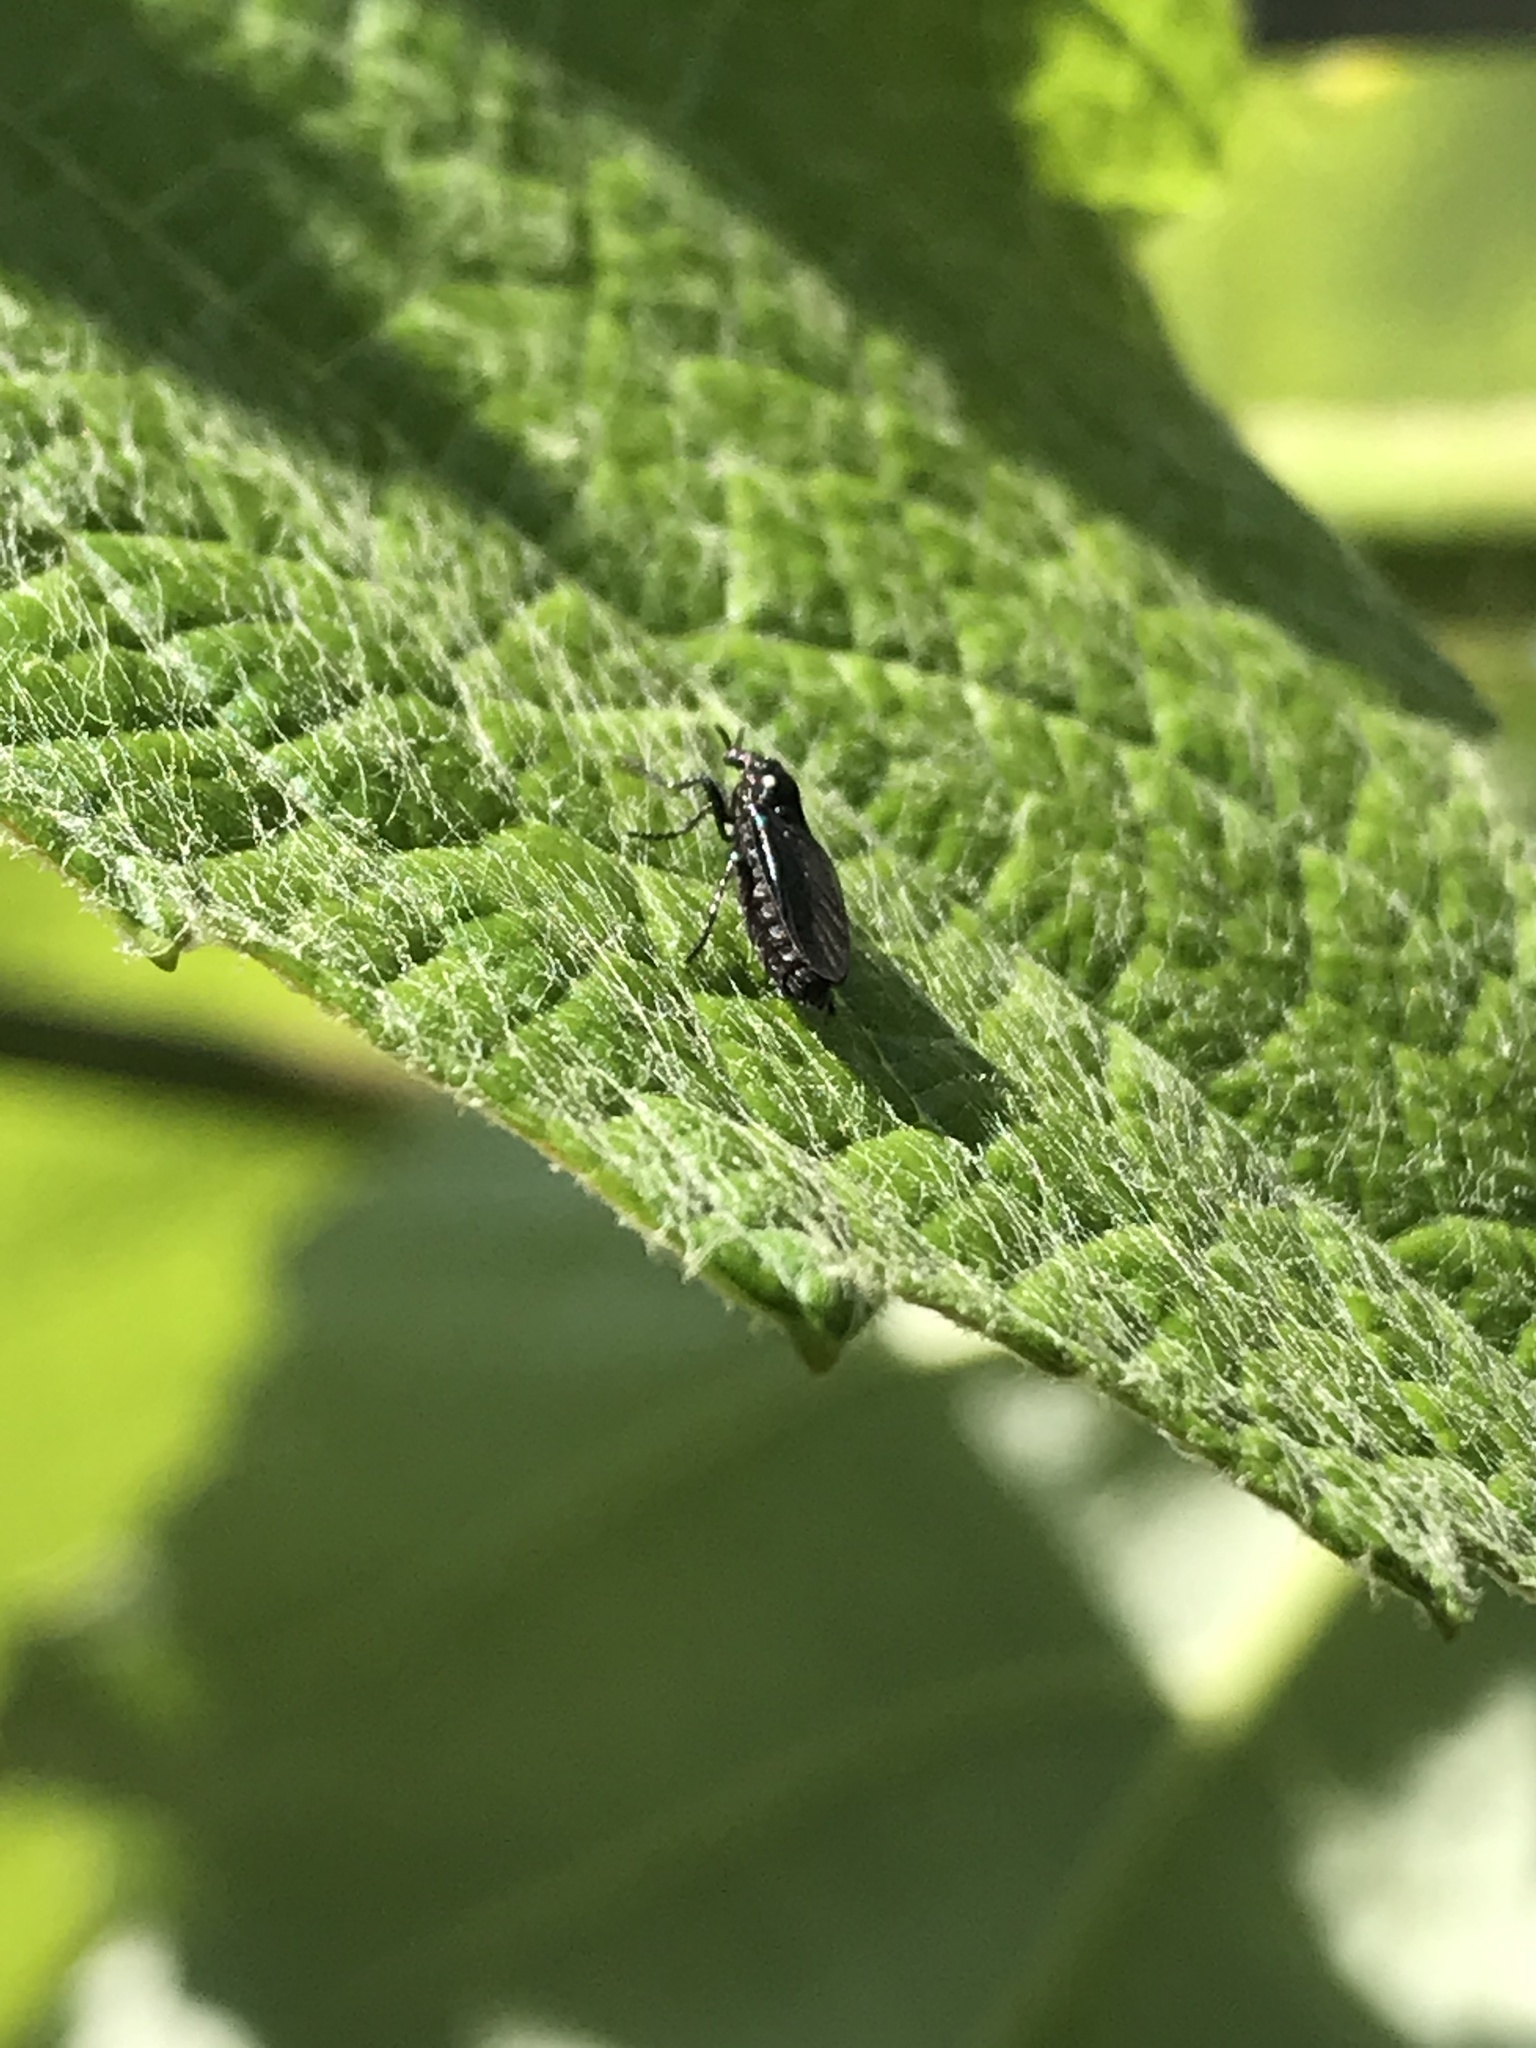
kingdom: Animalia
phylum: Arthropoda
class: Insecta
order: Diptera
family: Bibionidae
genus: Dilophus
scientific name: Dilophus orbatus
